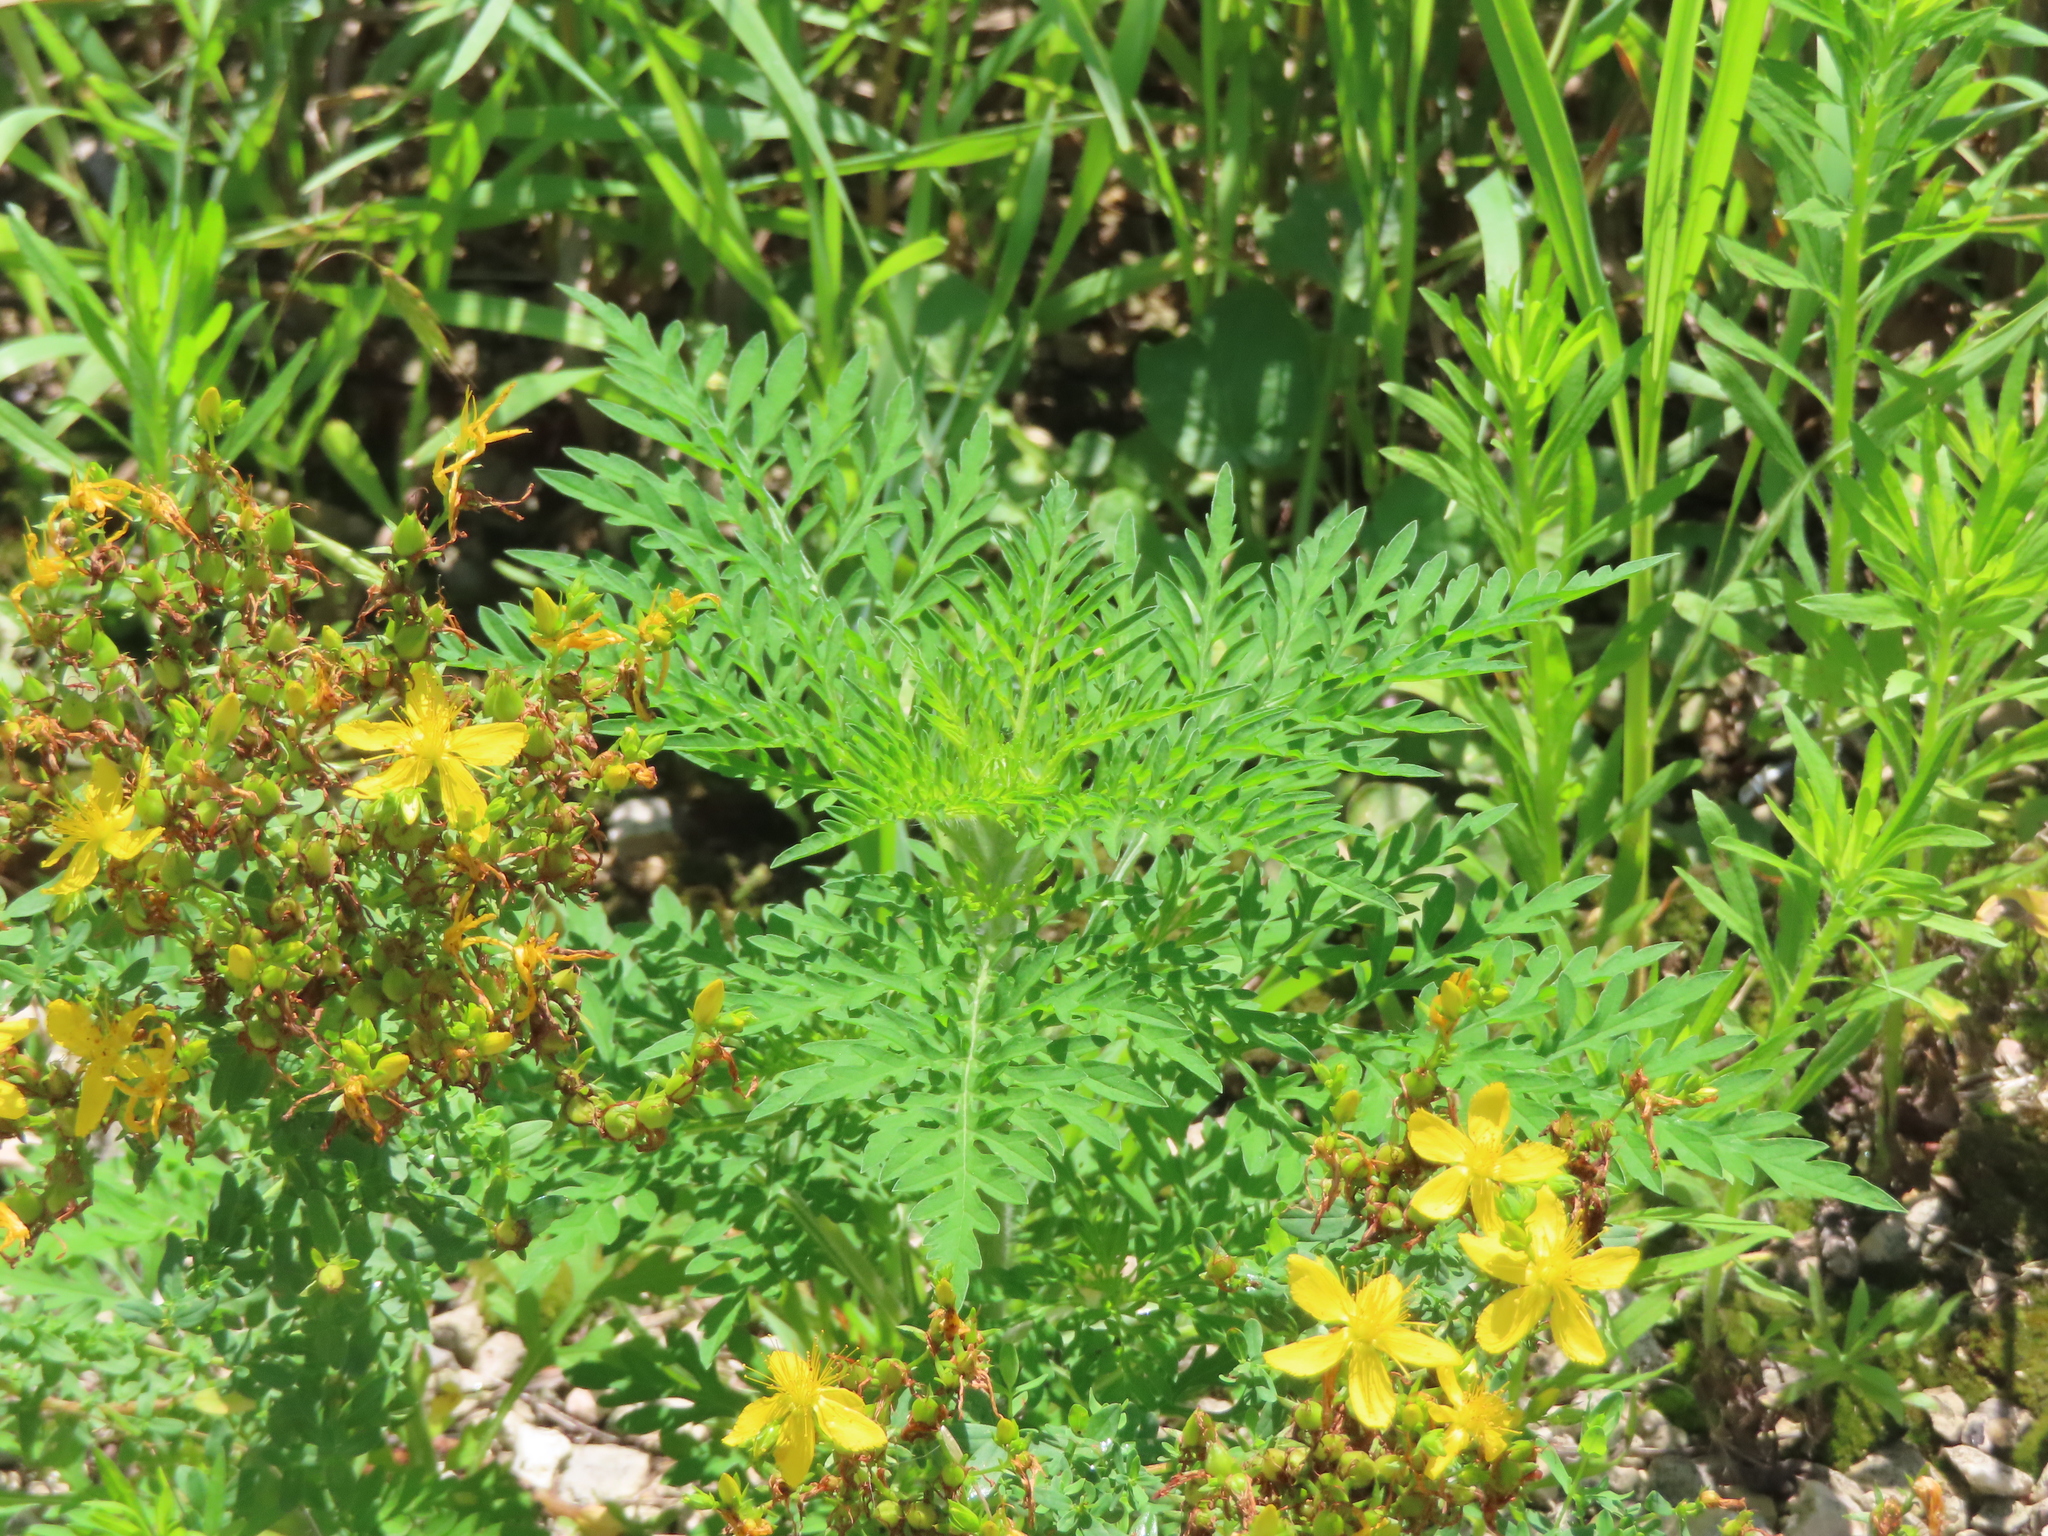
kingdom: Plantae
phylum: Tracheophyta
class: Magnoliopsida
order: Asterales
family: Asteraceae
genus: Ambrosia
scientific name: Ambrosia artemisiifolia
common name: Annual ragweed
